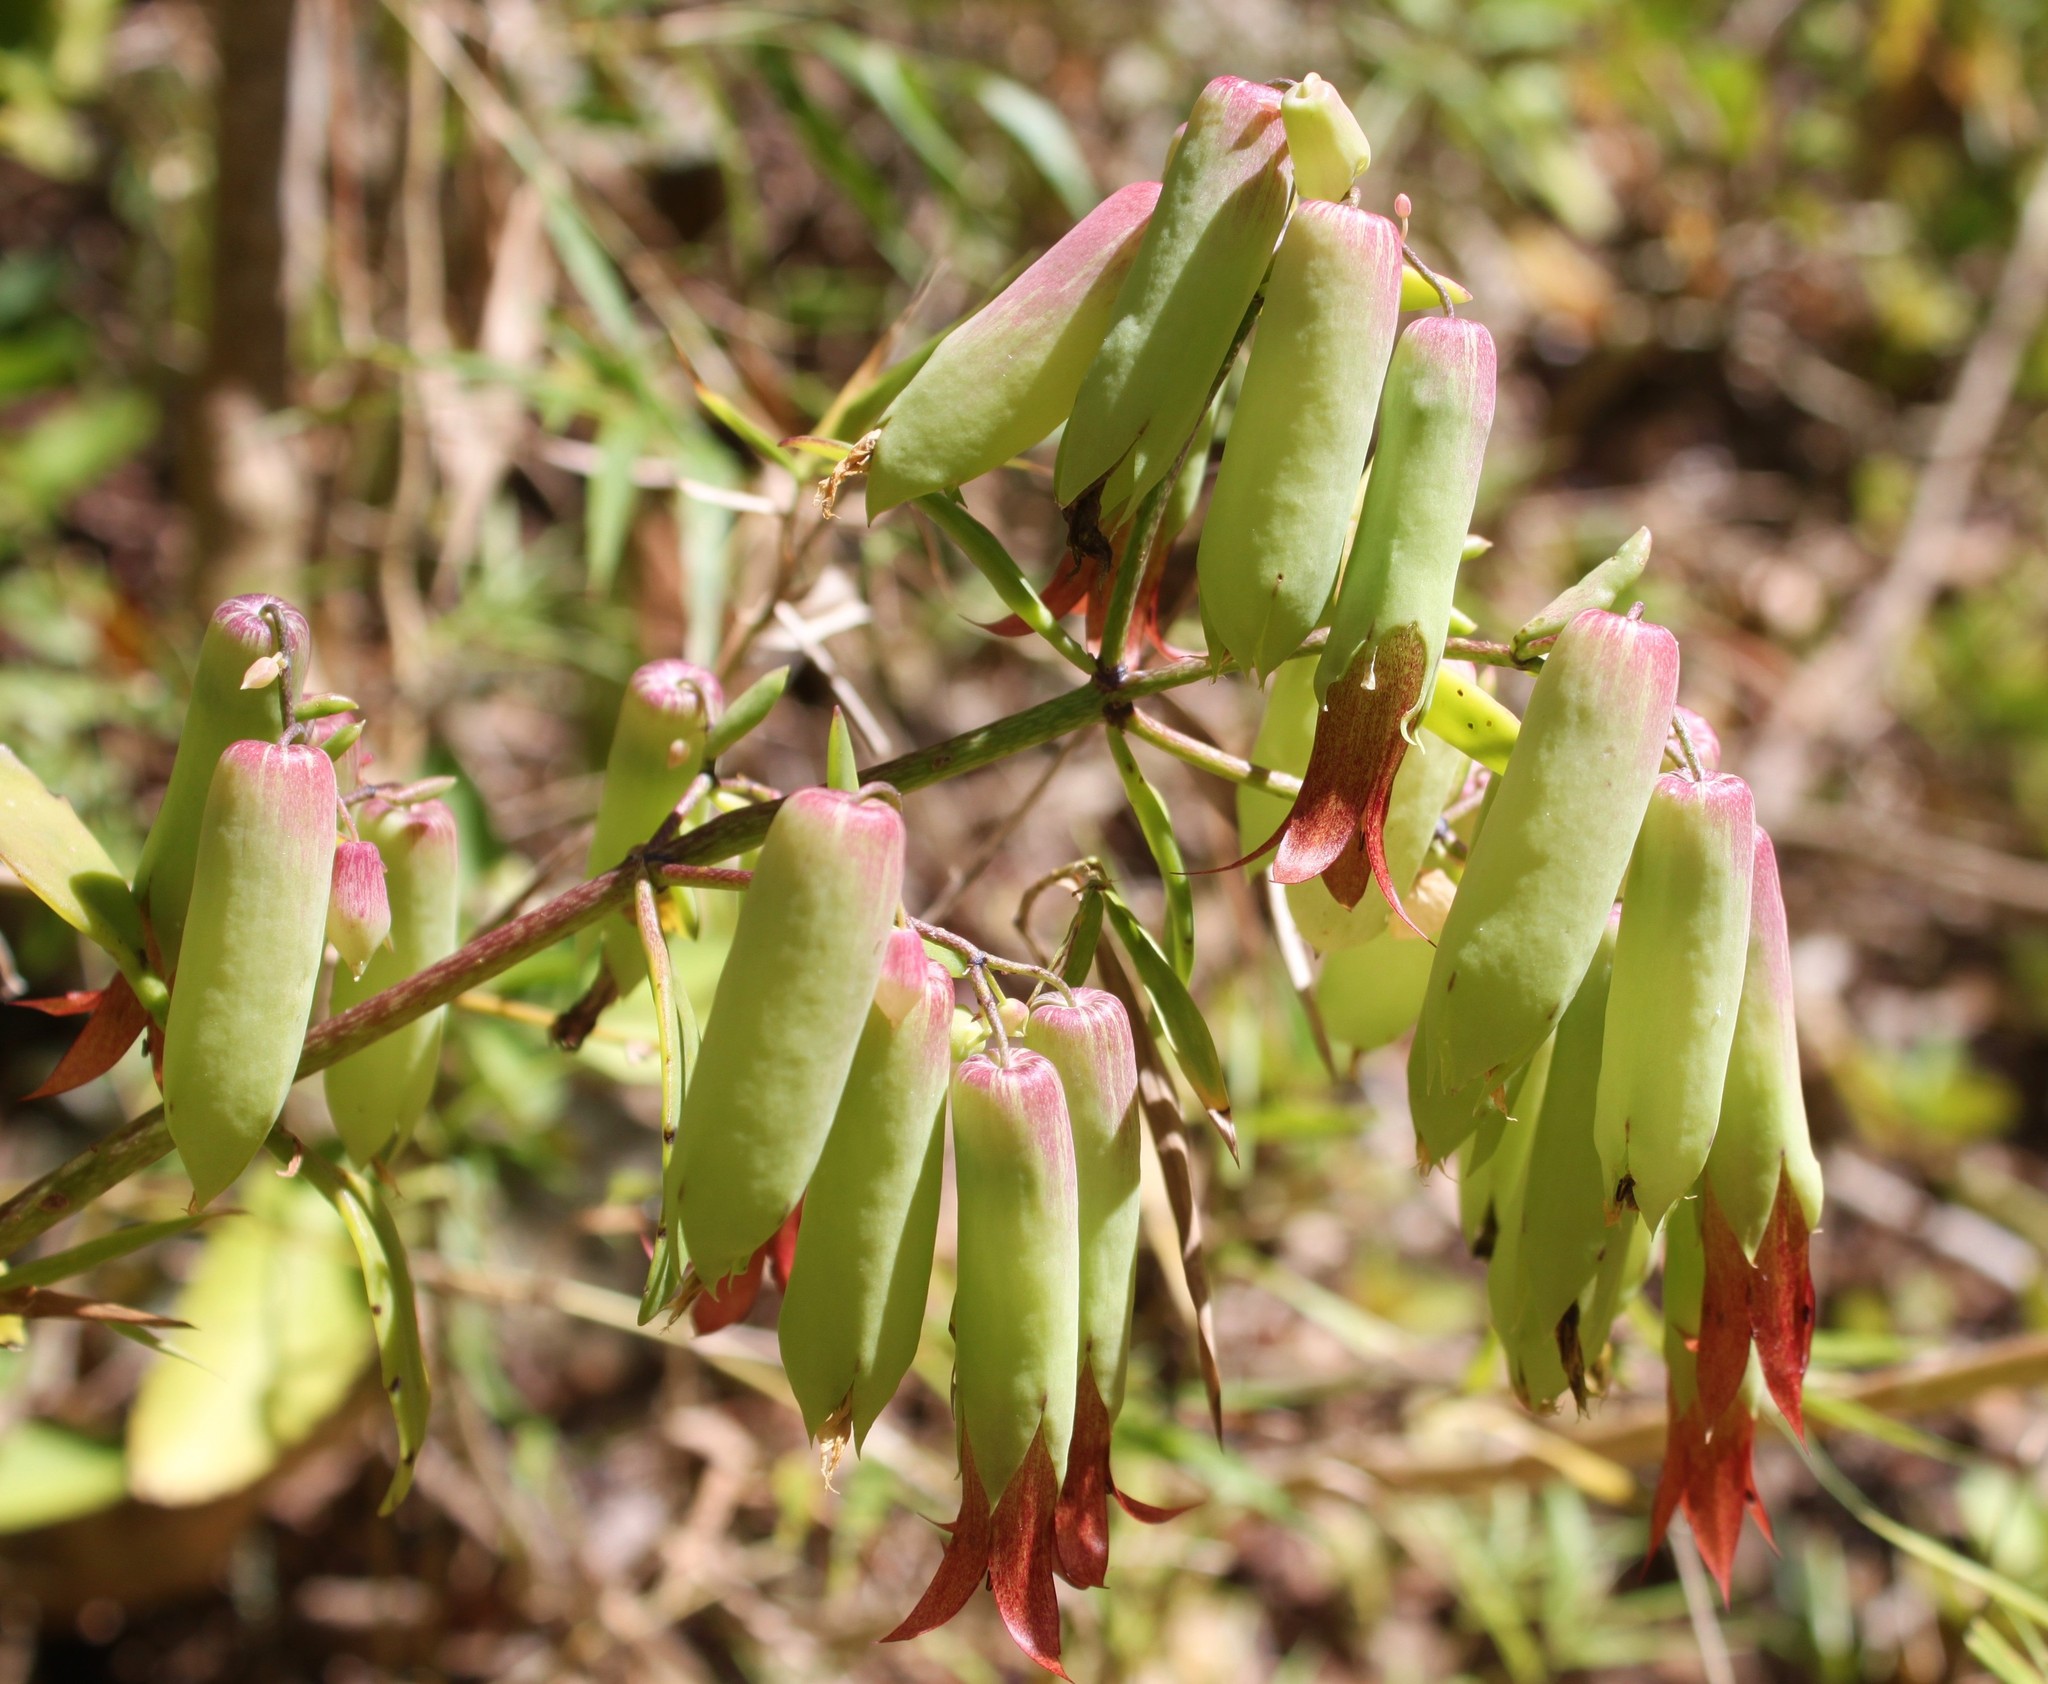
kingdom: Plantae
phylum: Tracheophyta
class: Magnoliopsida
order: Saxifragales
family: Crassulaceae
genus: Kalanchoe
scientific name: Kalanchoe pinnata
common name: Cathedral bells
